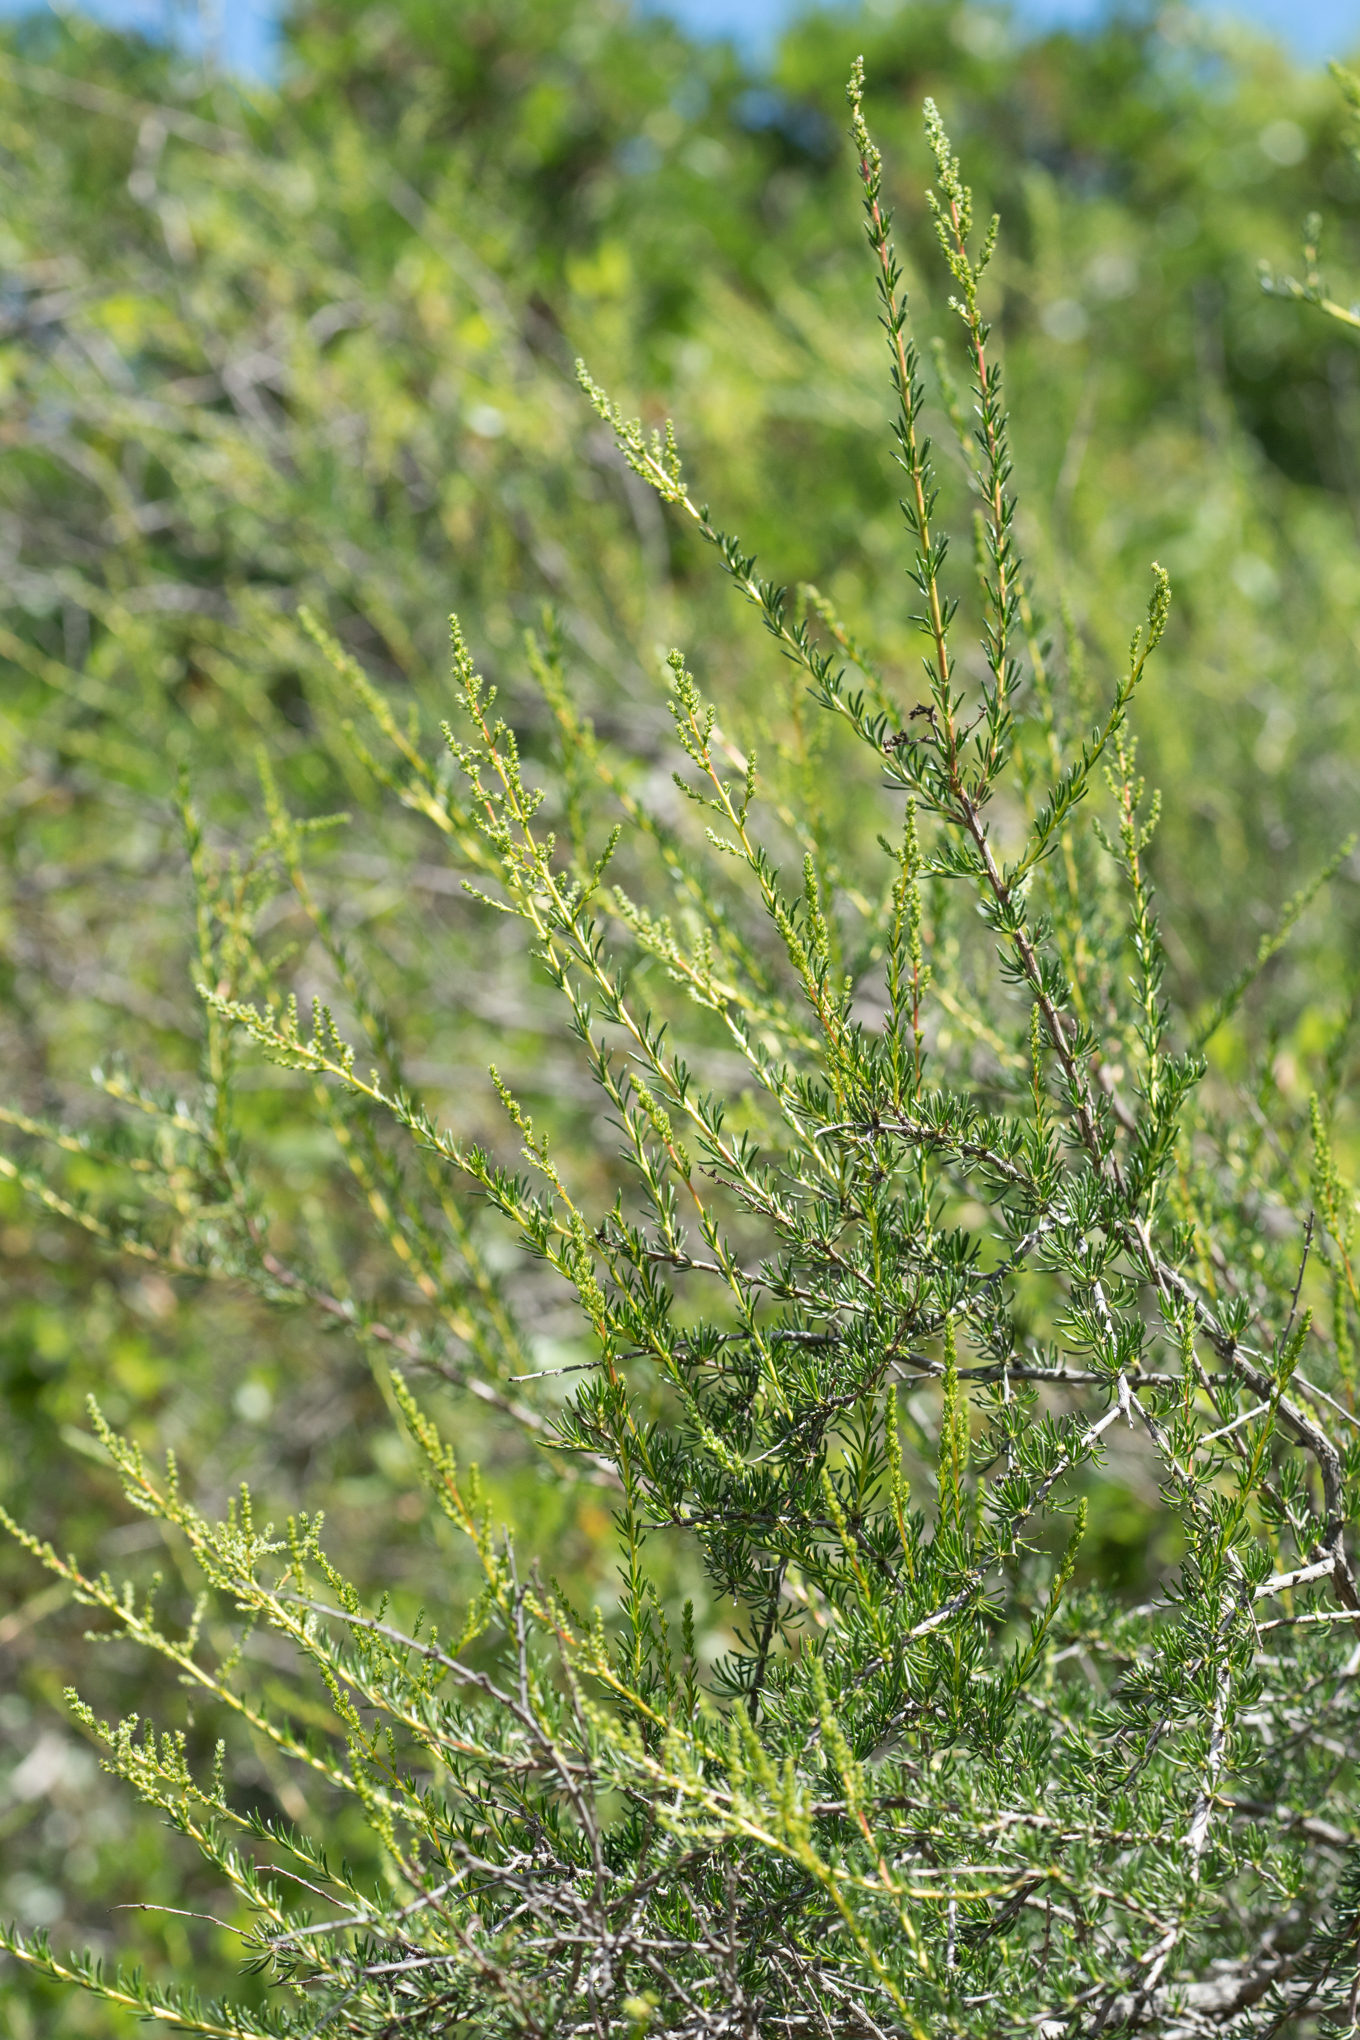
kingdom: Plantae
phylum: Tracheophyta
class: Magnoliopsida
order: Rosales
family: Rosaceae
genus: Adenostoma
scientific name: Adenostoma fasciculatum
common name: Chamise
